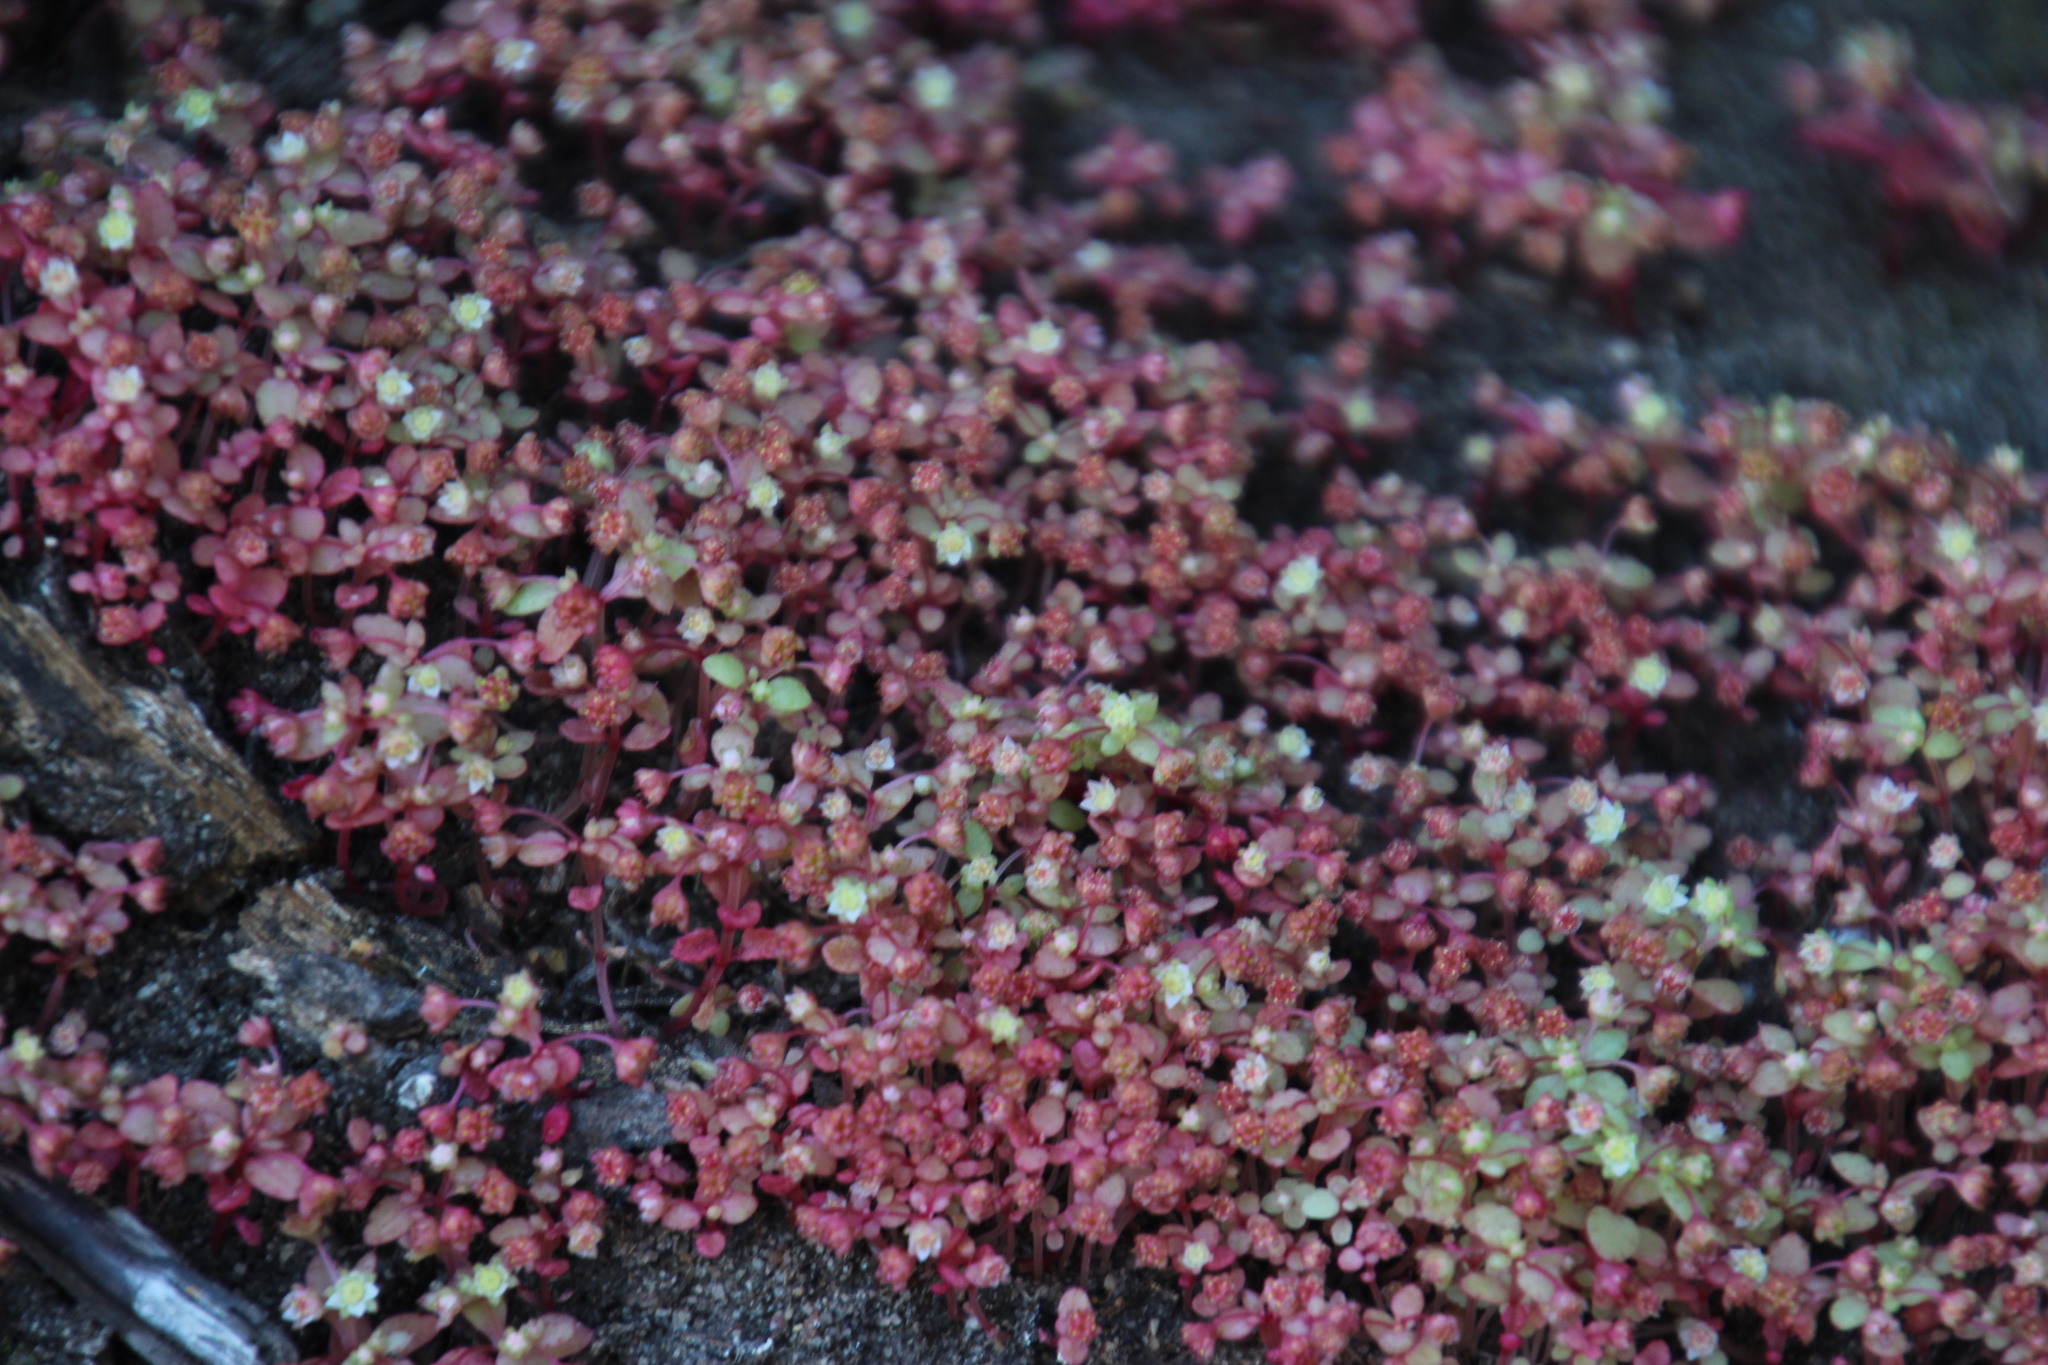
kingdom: Plantae
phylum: Tracheophyta
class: Magnoliopsida
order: Saxifragales
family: Crassulaceae
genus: Crassula
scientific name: Crassula oblanceolata
